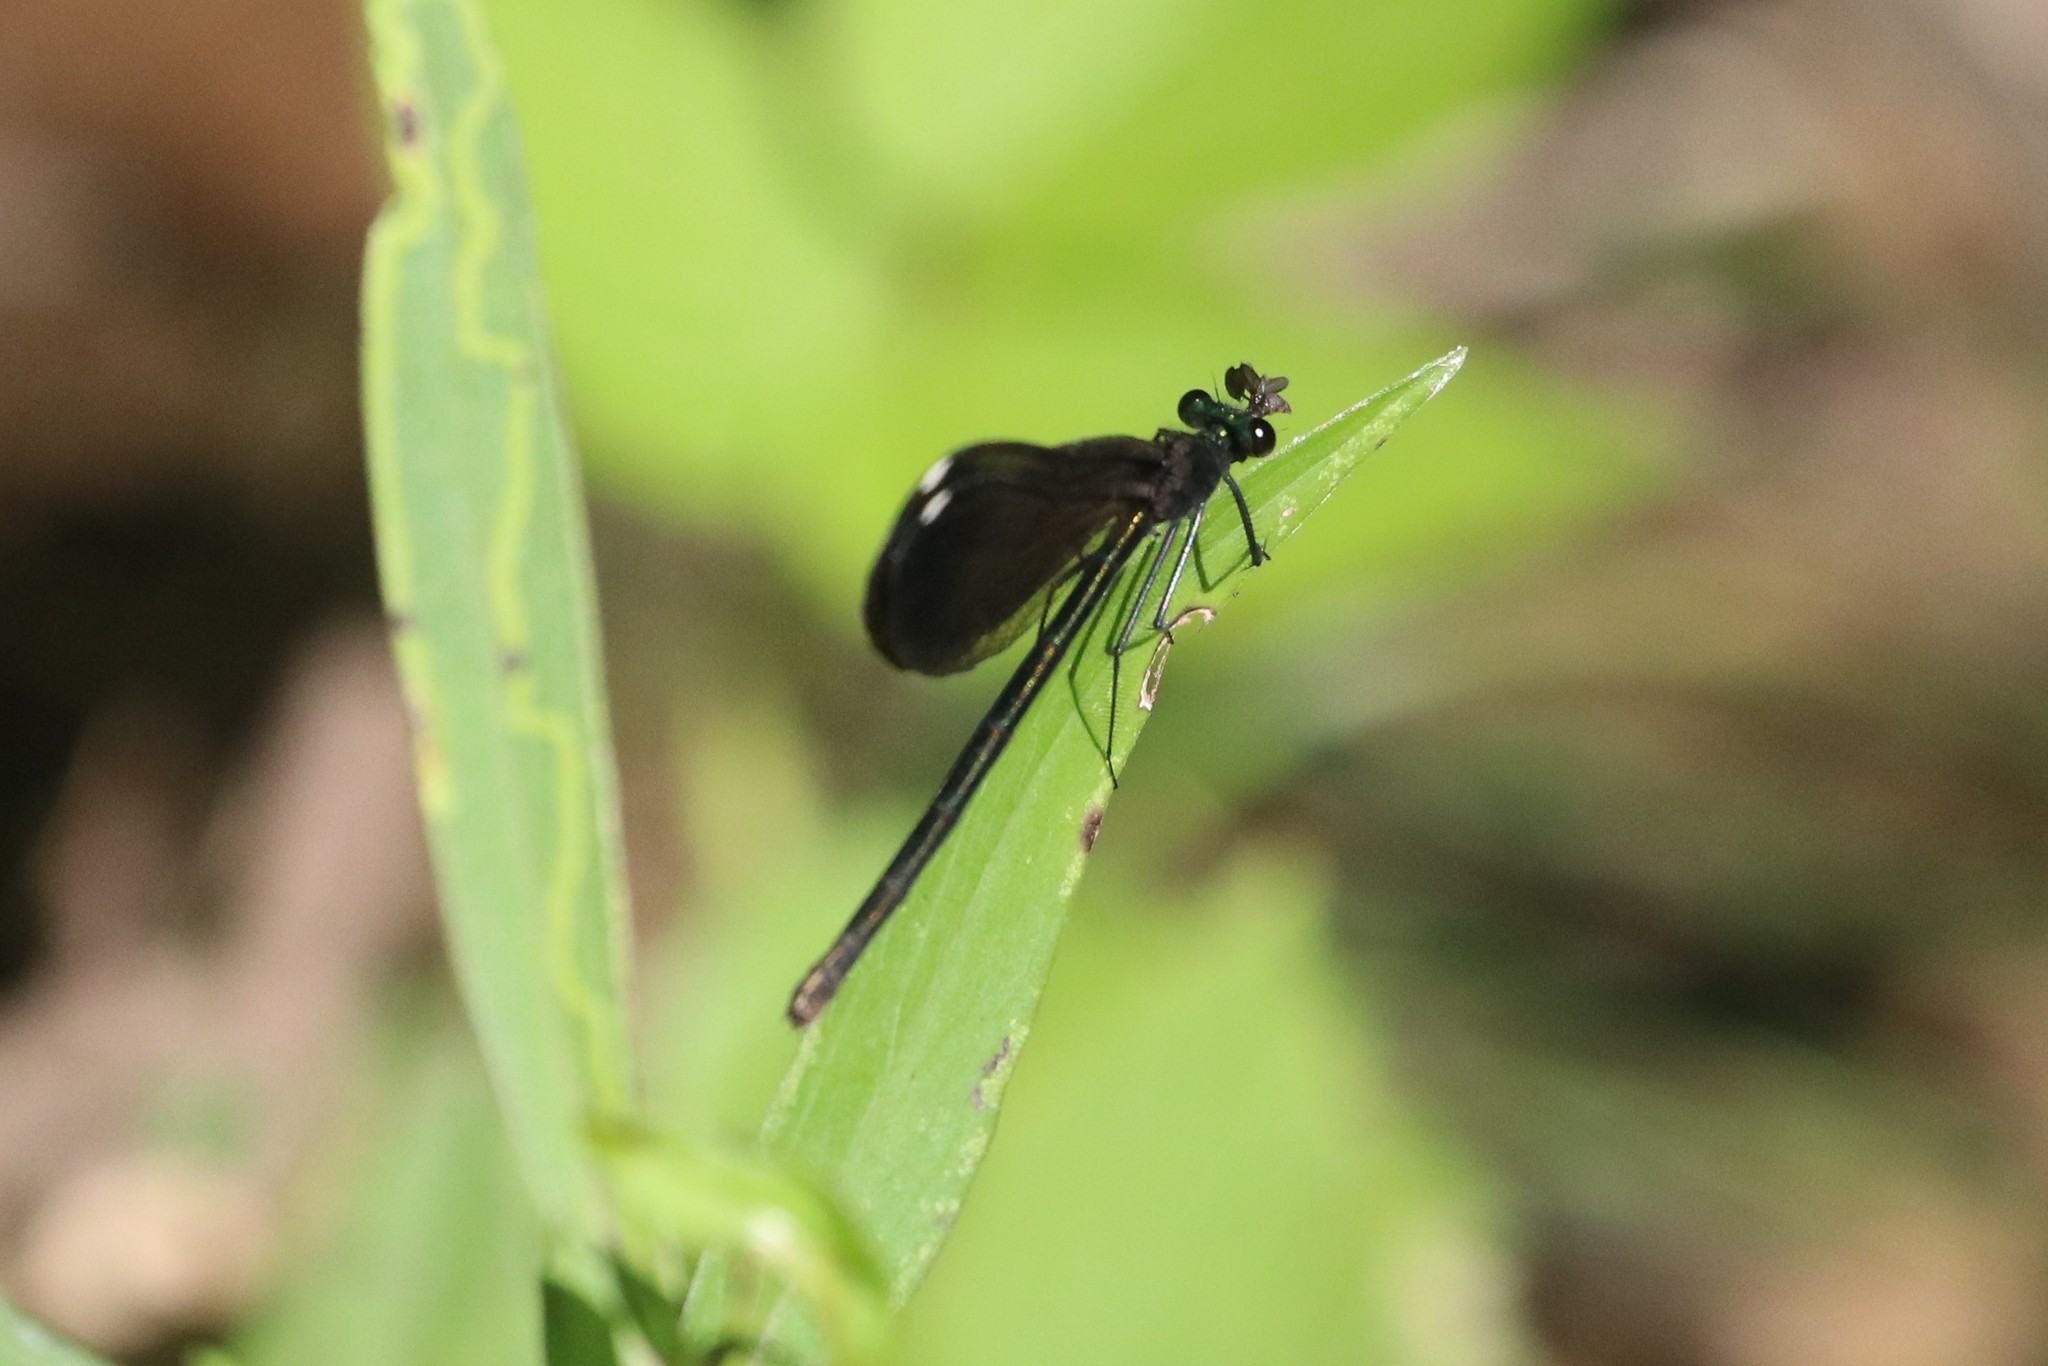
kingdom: Animalia
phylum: Arthropoda
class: Insecta
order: Odonata
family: Calopterygidae
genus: Calopteryx
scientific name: Calopteryx maculata
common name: Ebony jewelwing
